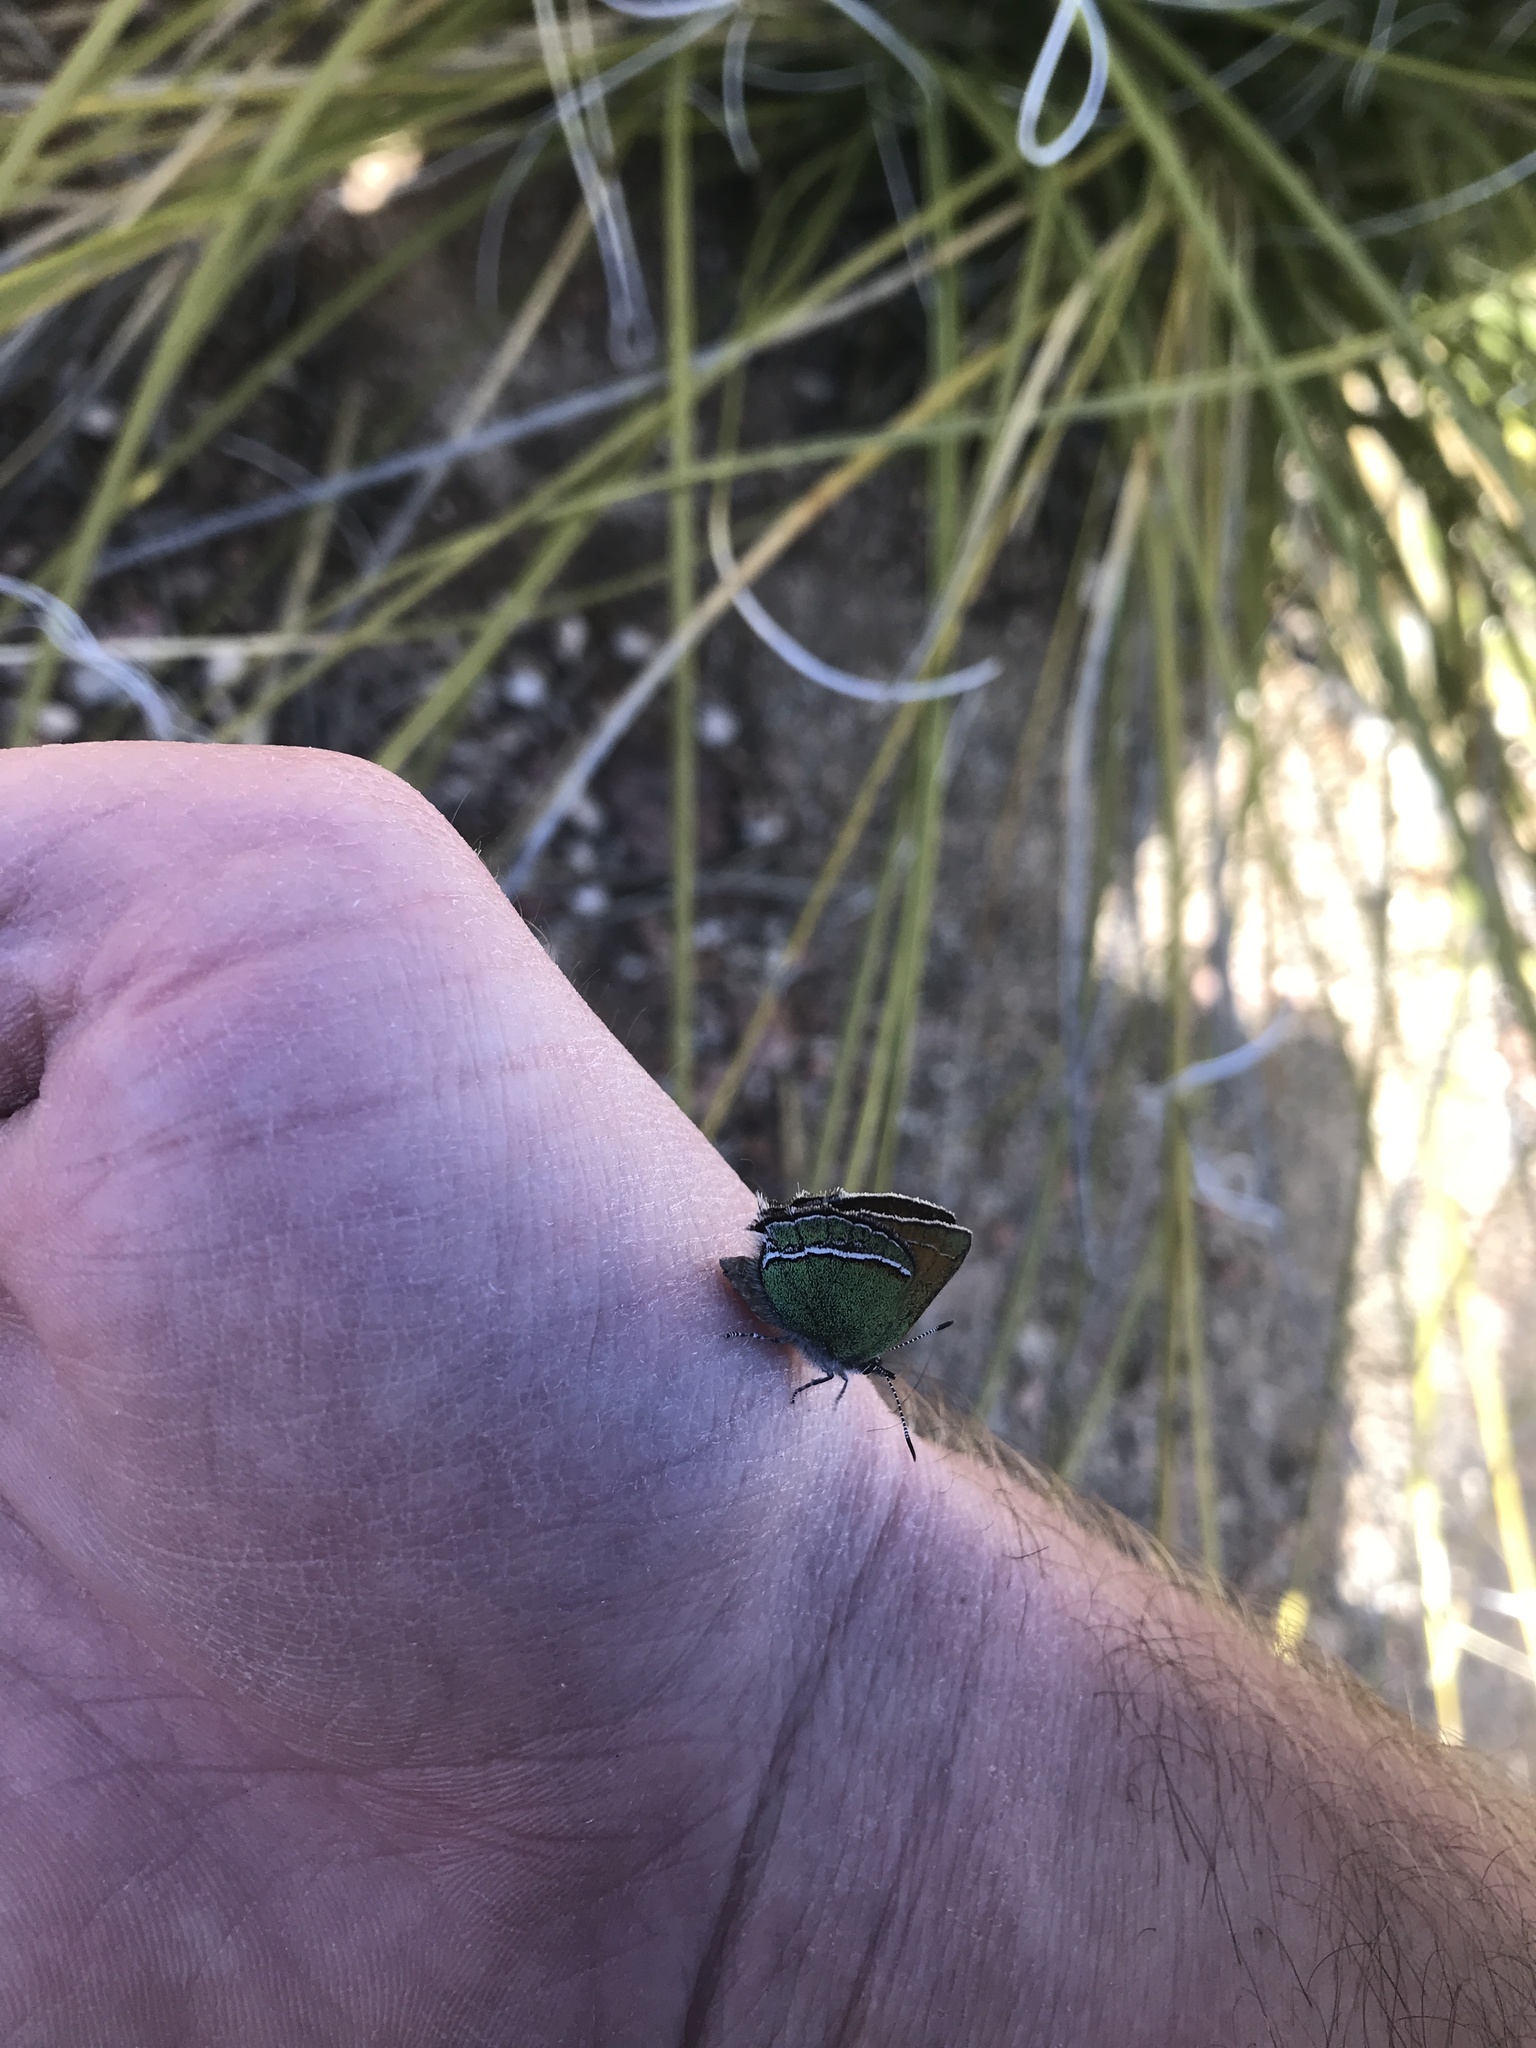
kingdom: Animalia
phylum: Arthropoda
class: Insecta
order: Lepidoptera
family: Lycaenidae
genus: Sandia
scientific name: Sandia mcfarlandi
